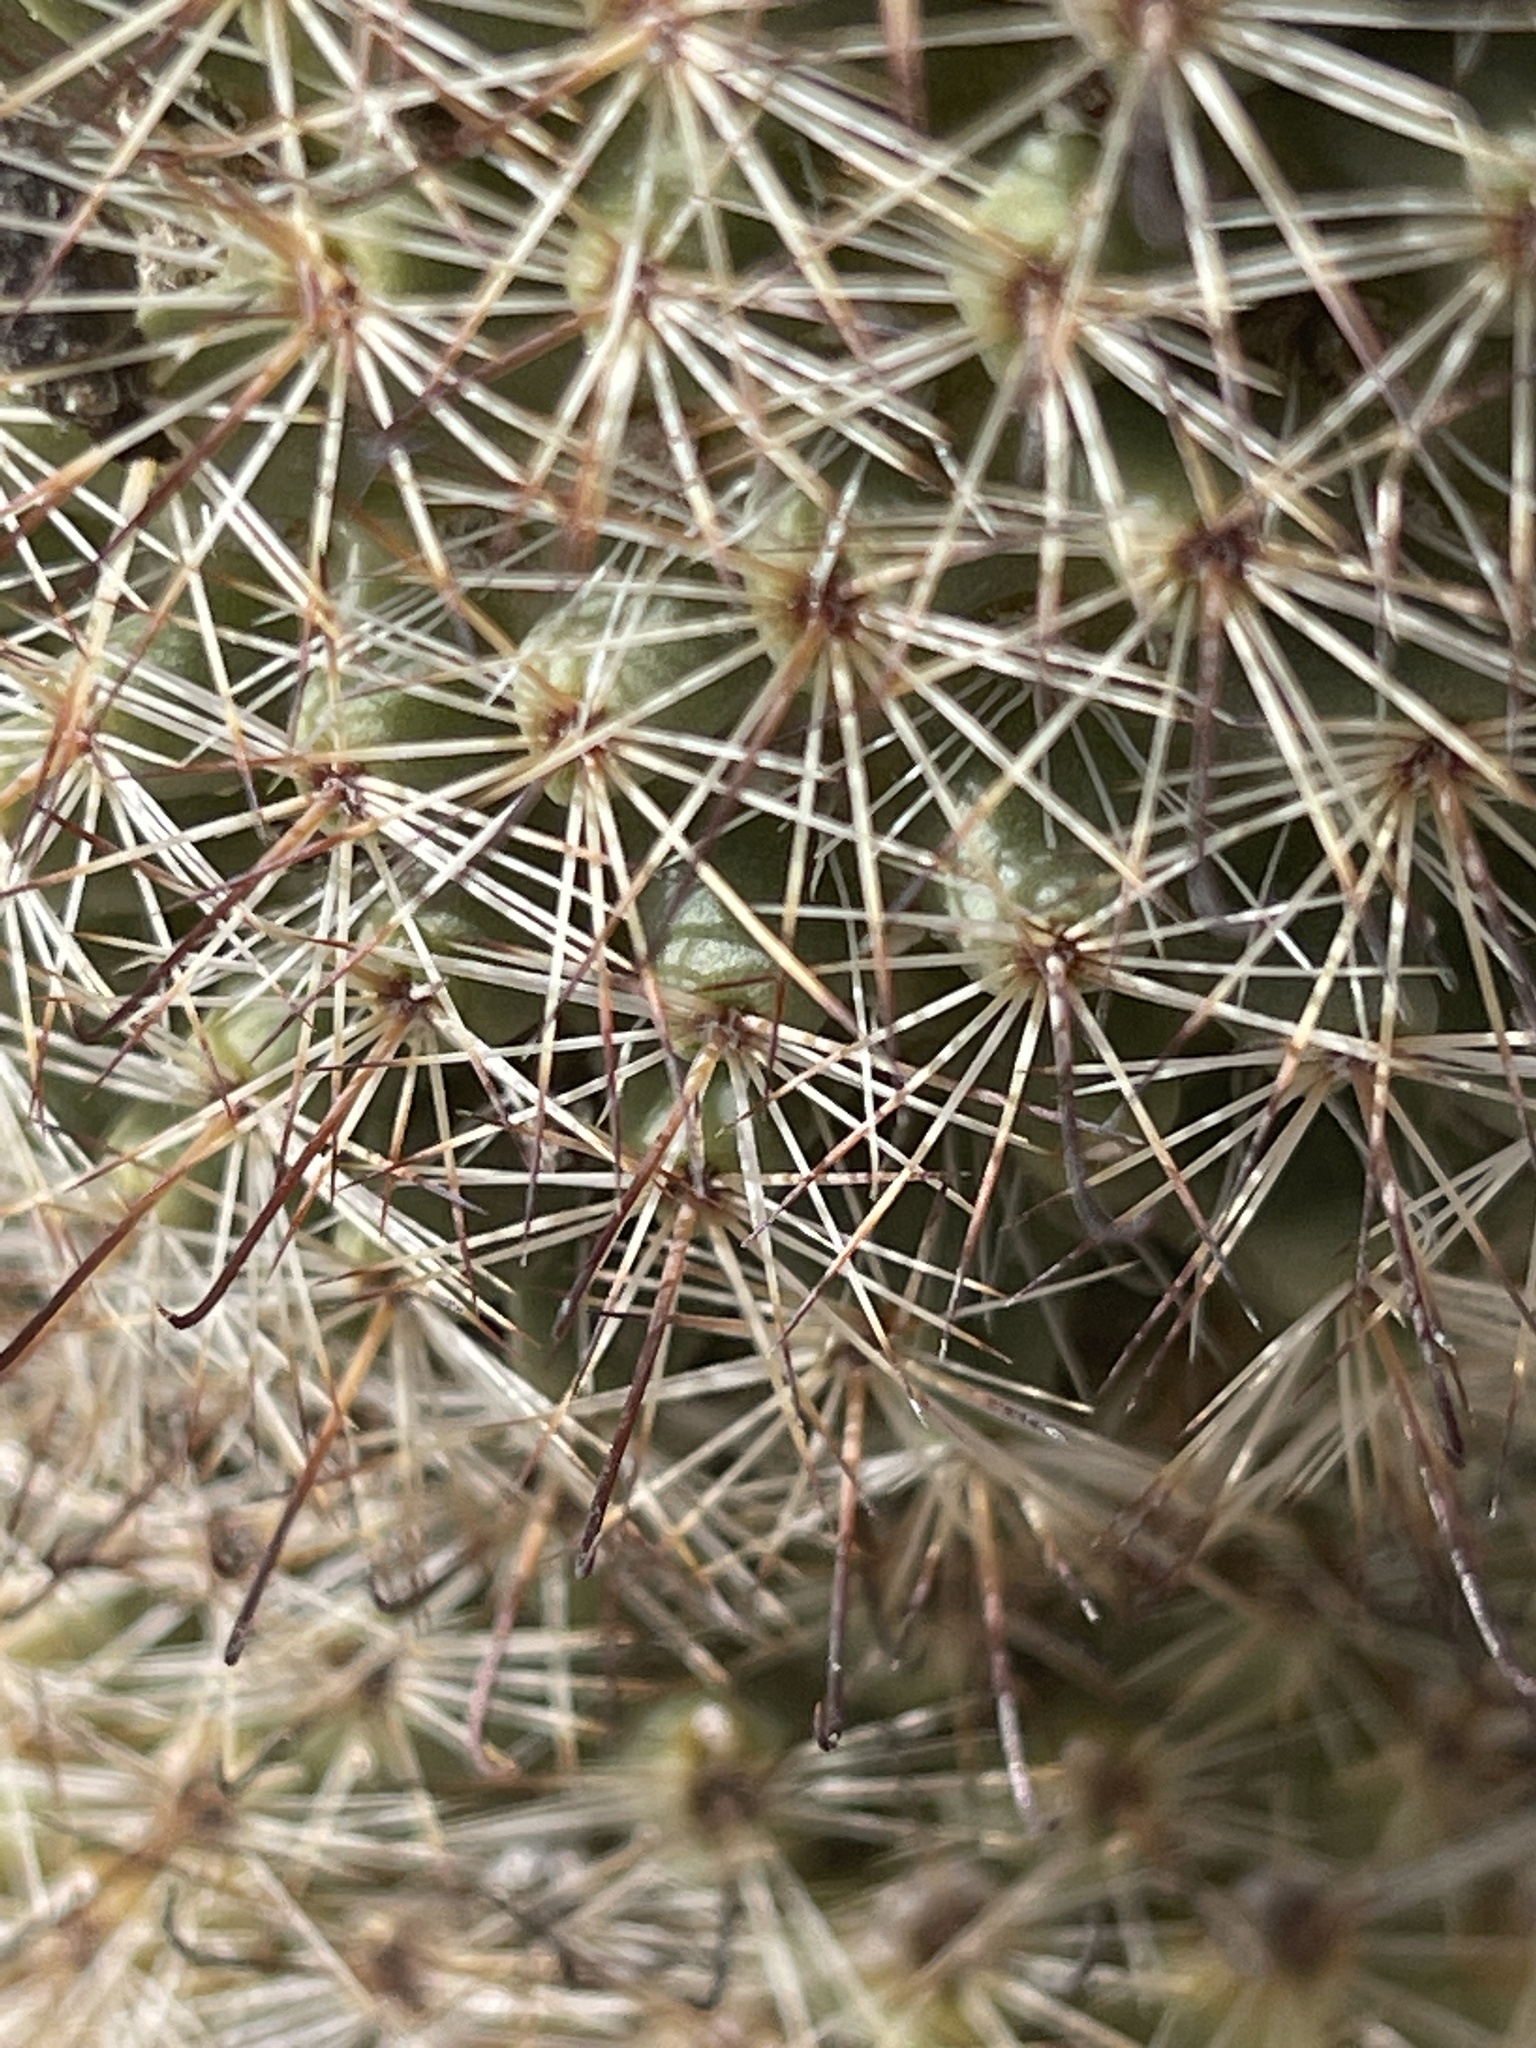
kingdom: Plantae
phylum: Tracheophyta
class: Magnoliopsida
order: Caryophyllales
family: Cactaceae
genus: Cochemiea
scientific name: Cochemiea dioica
